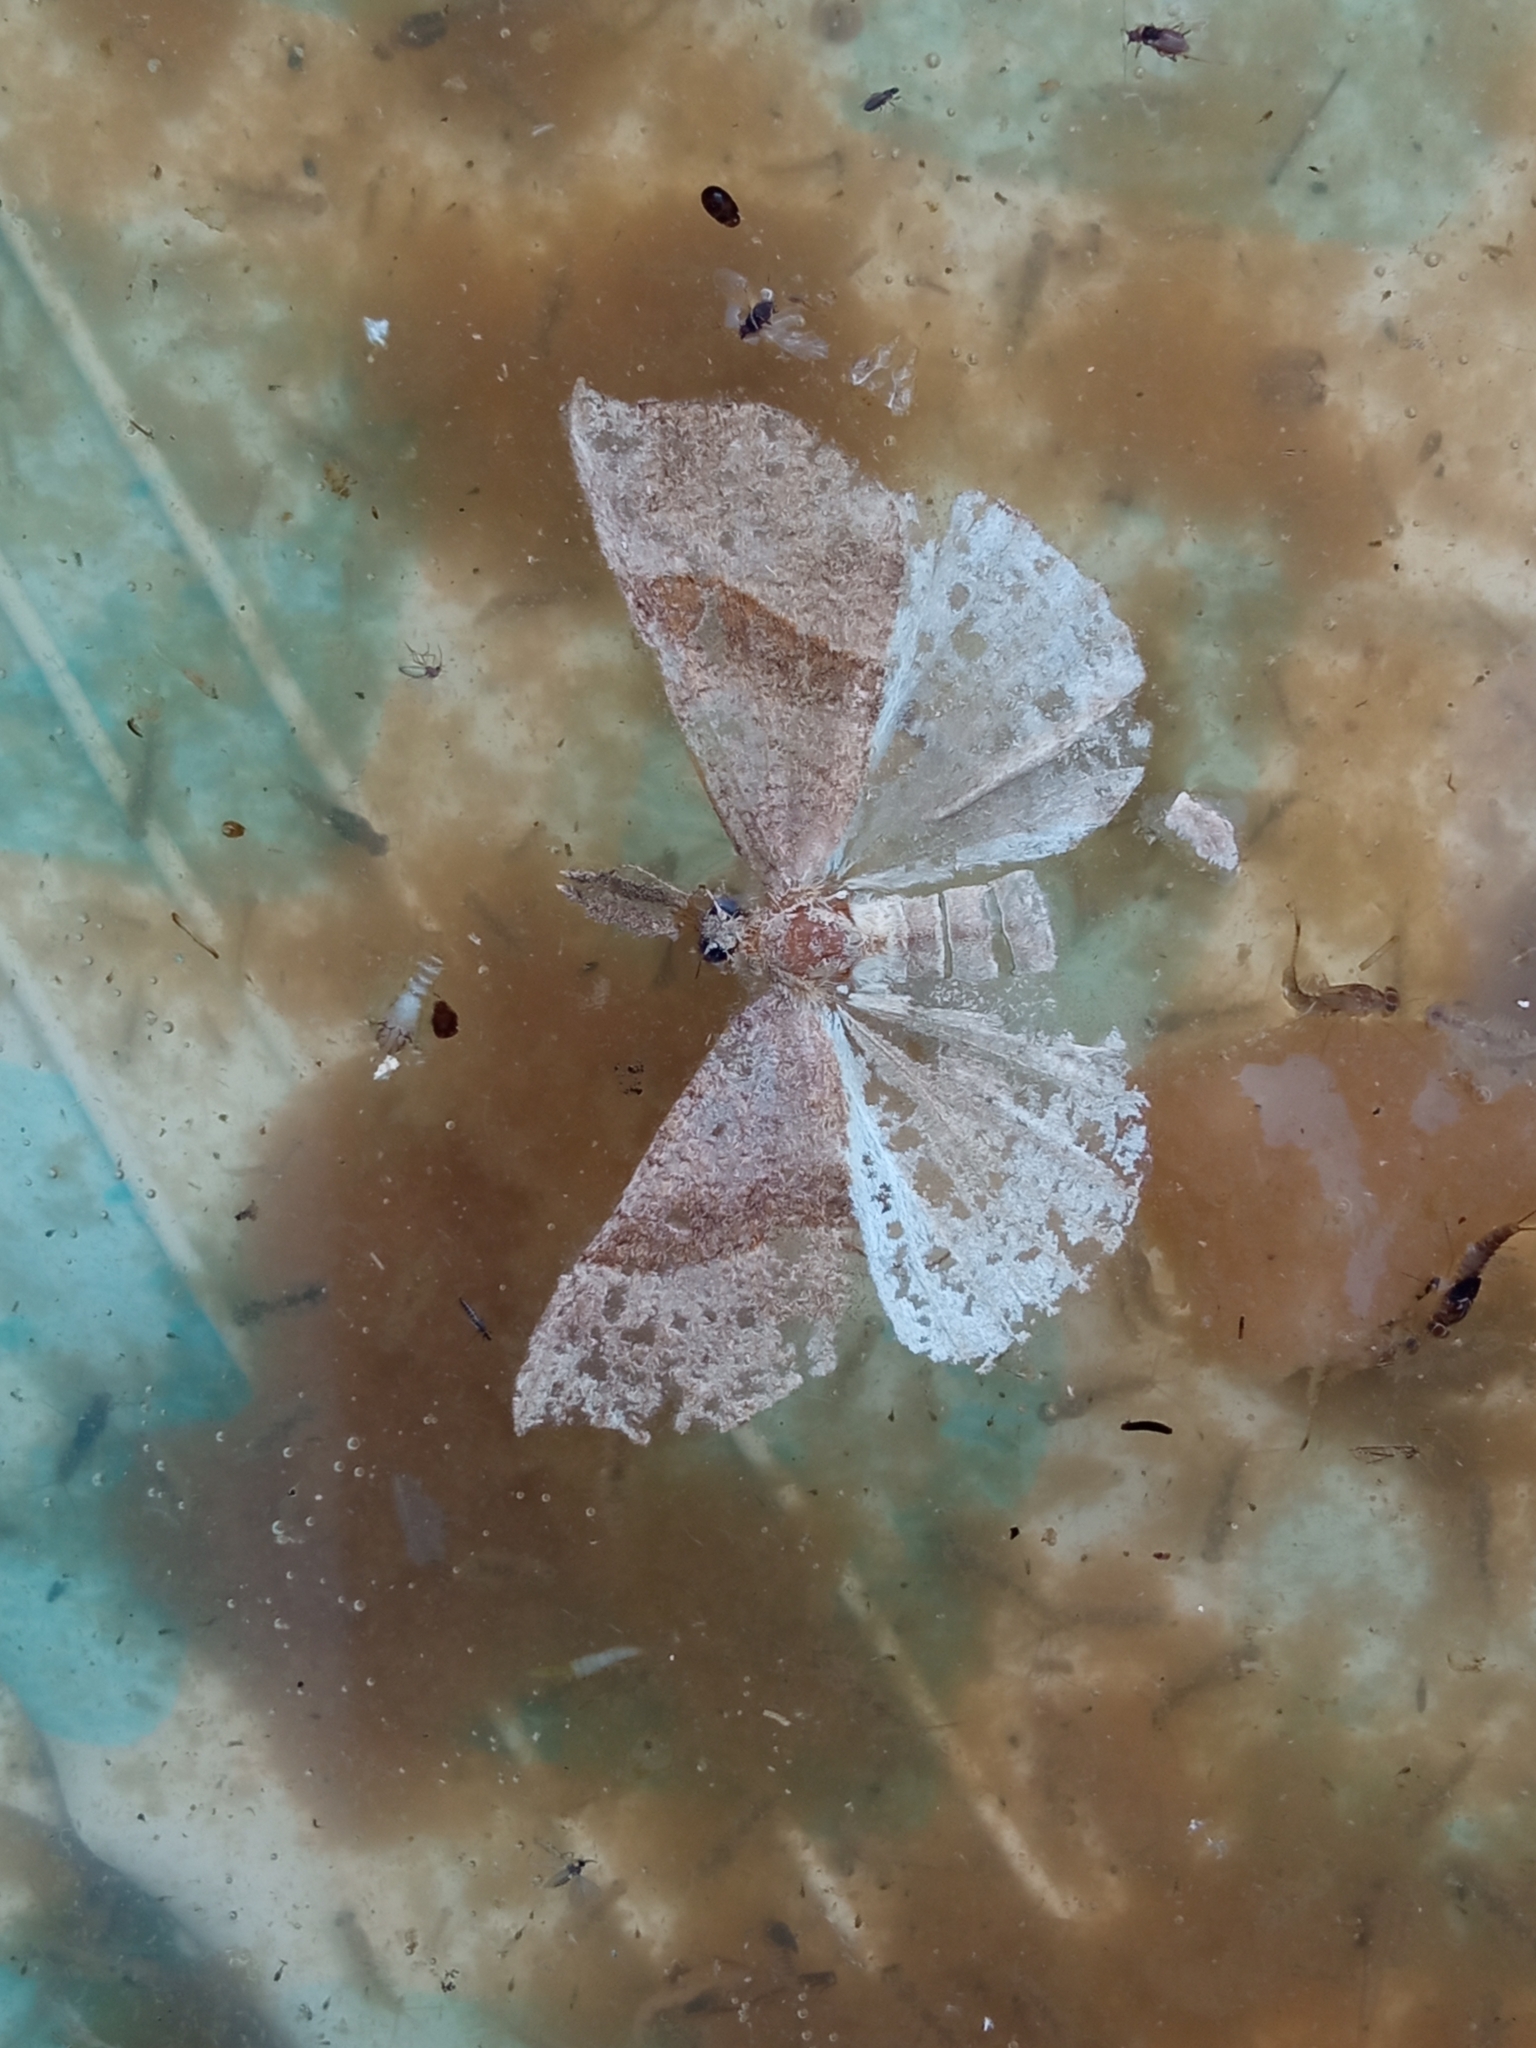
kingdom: Animalia
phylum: Arthropoda
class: Insecta
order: Lepidoptera
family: Erebidae
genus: Hypena
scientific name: Hypena proboscidalis
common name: Snout
